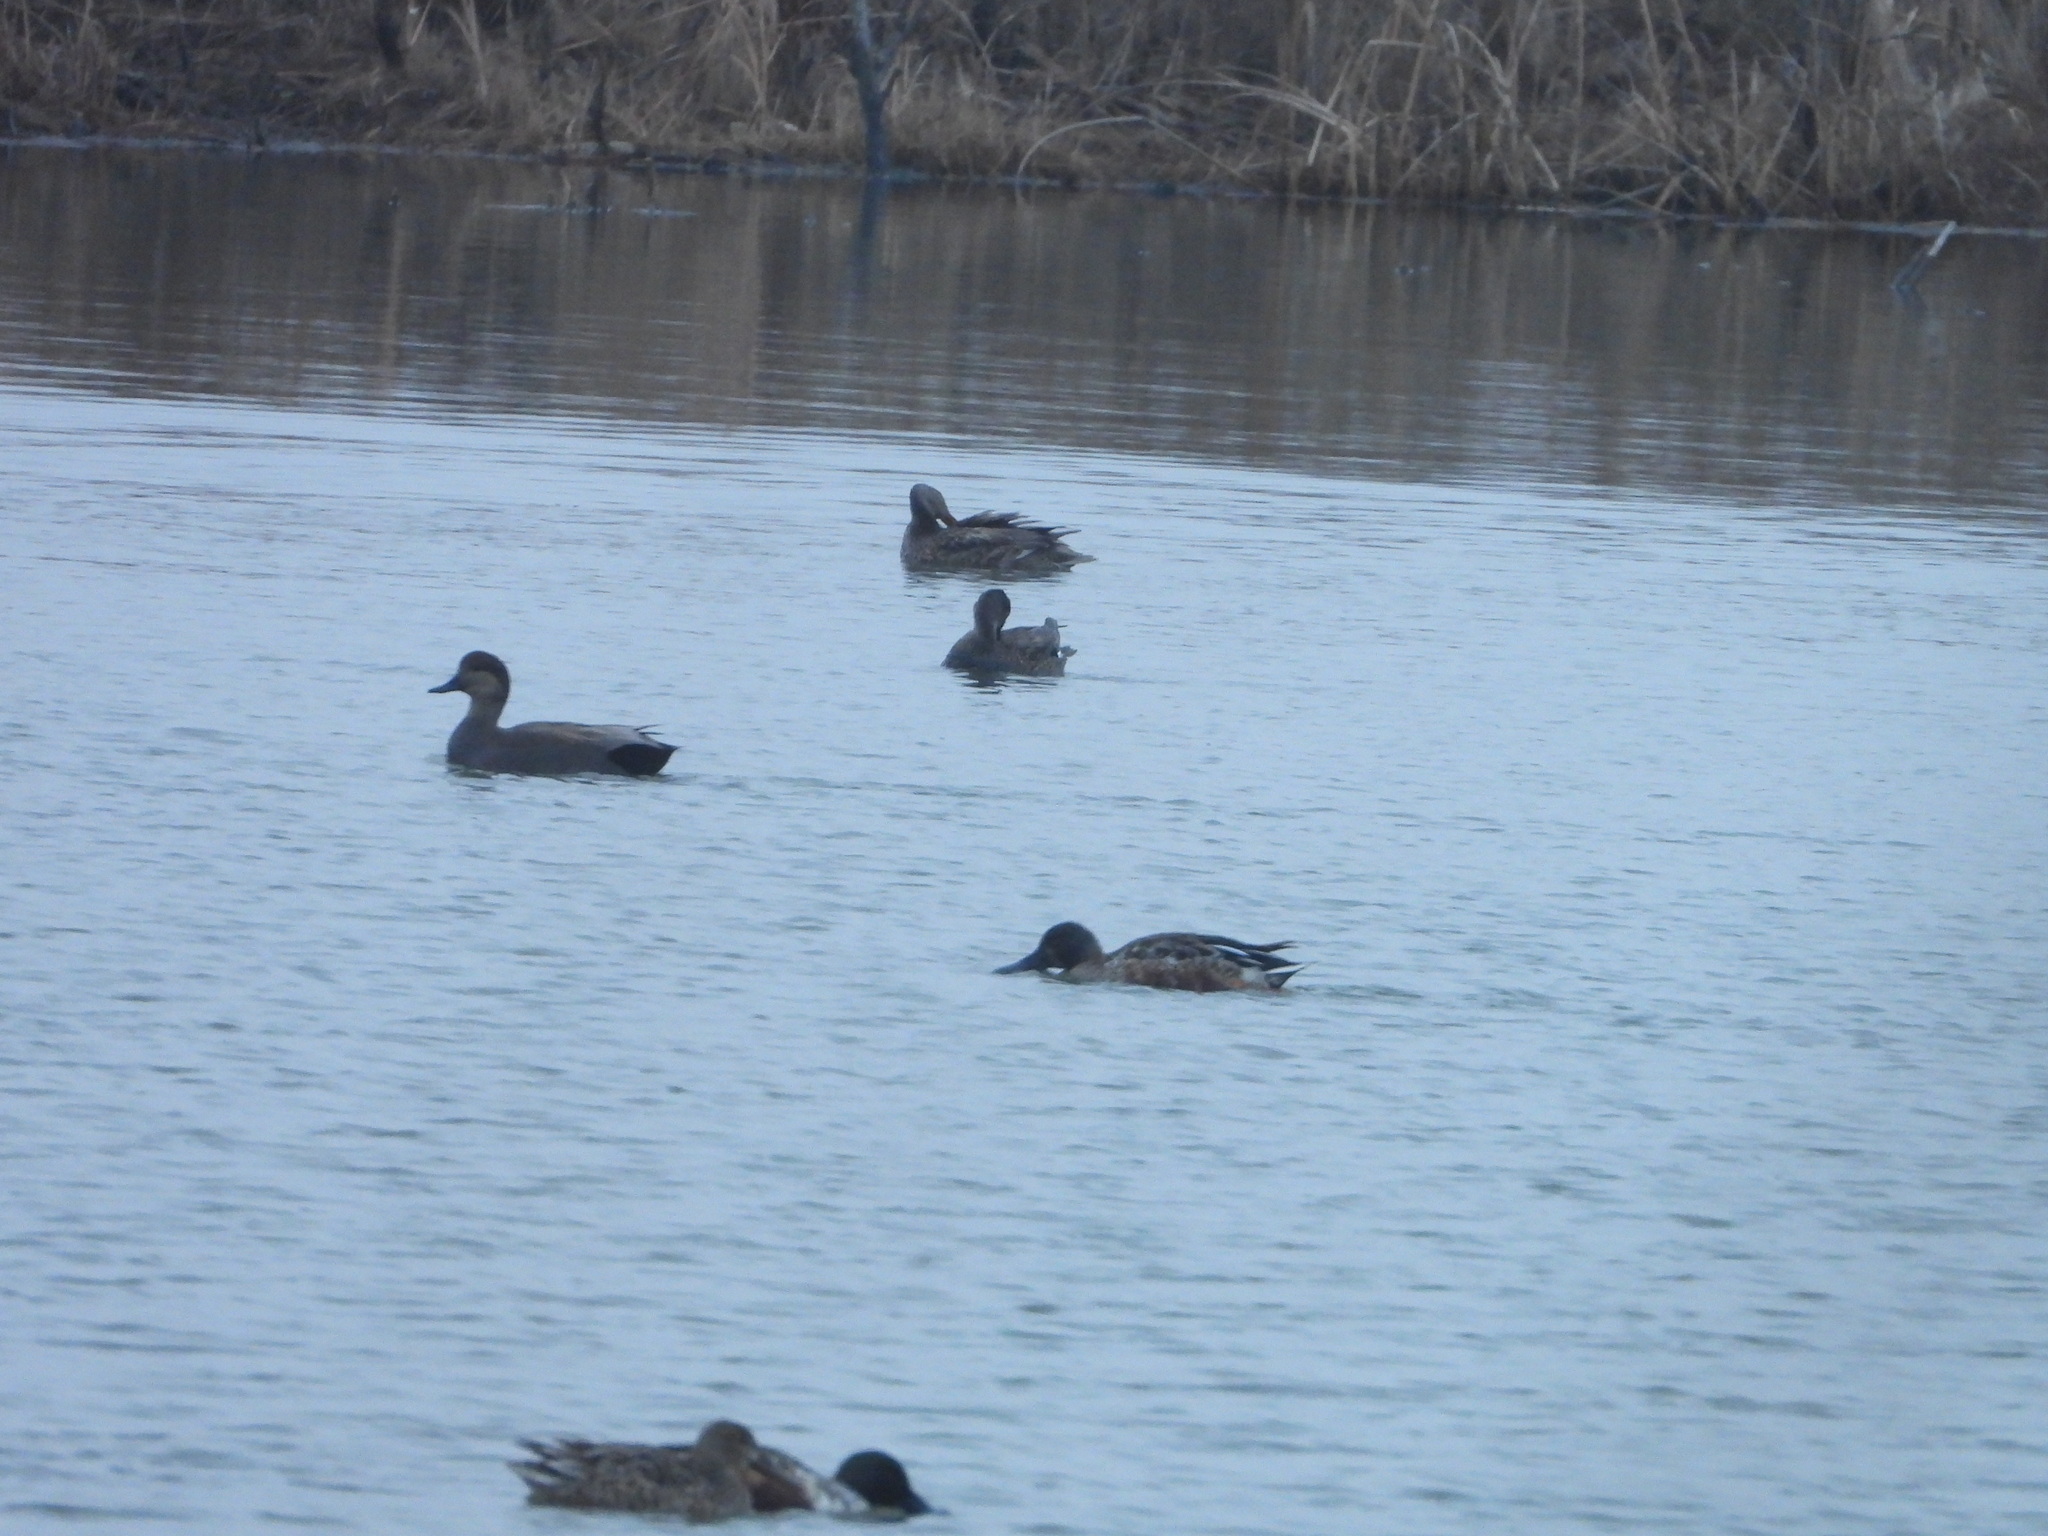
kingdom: Animalia
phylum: Chordata
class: Aves
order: Anseriformes
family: Anatidae
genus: Mareca
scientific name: Mareca strepera
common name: Gadwall
